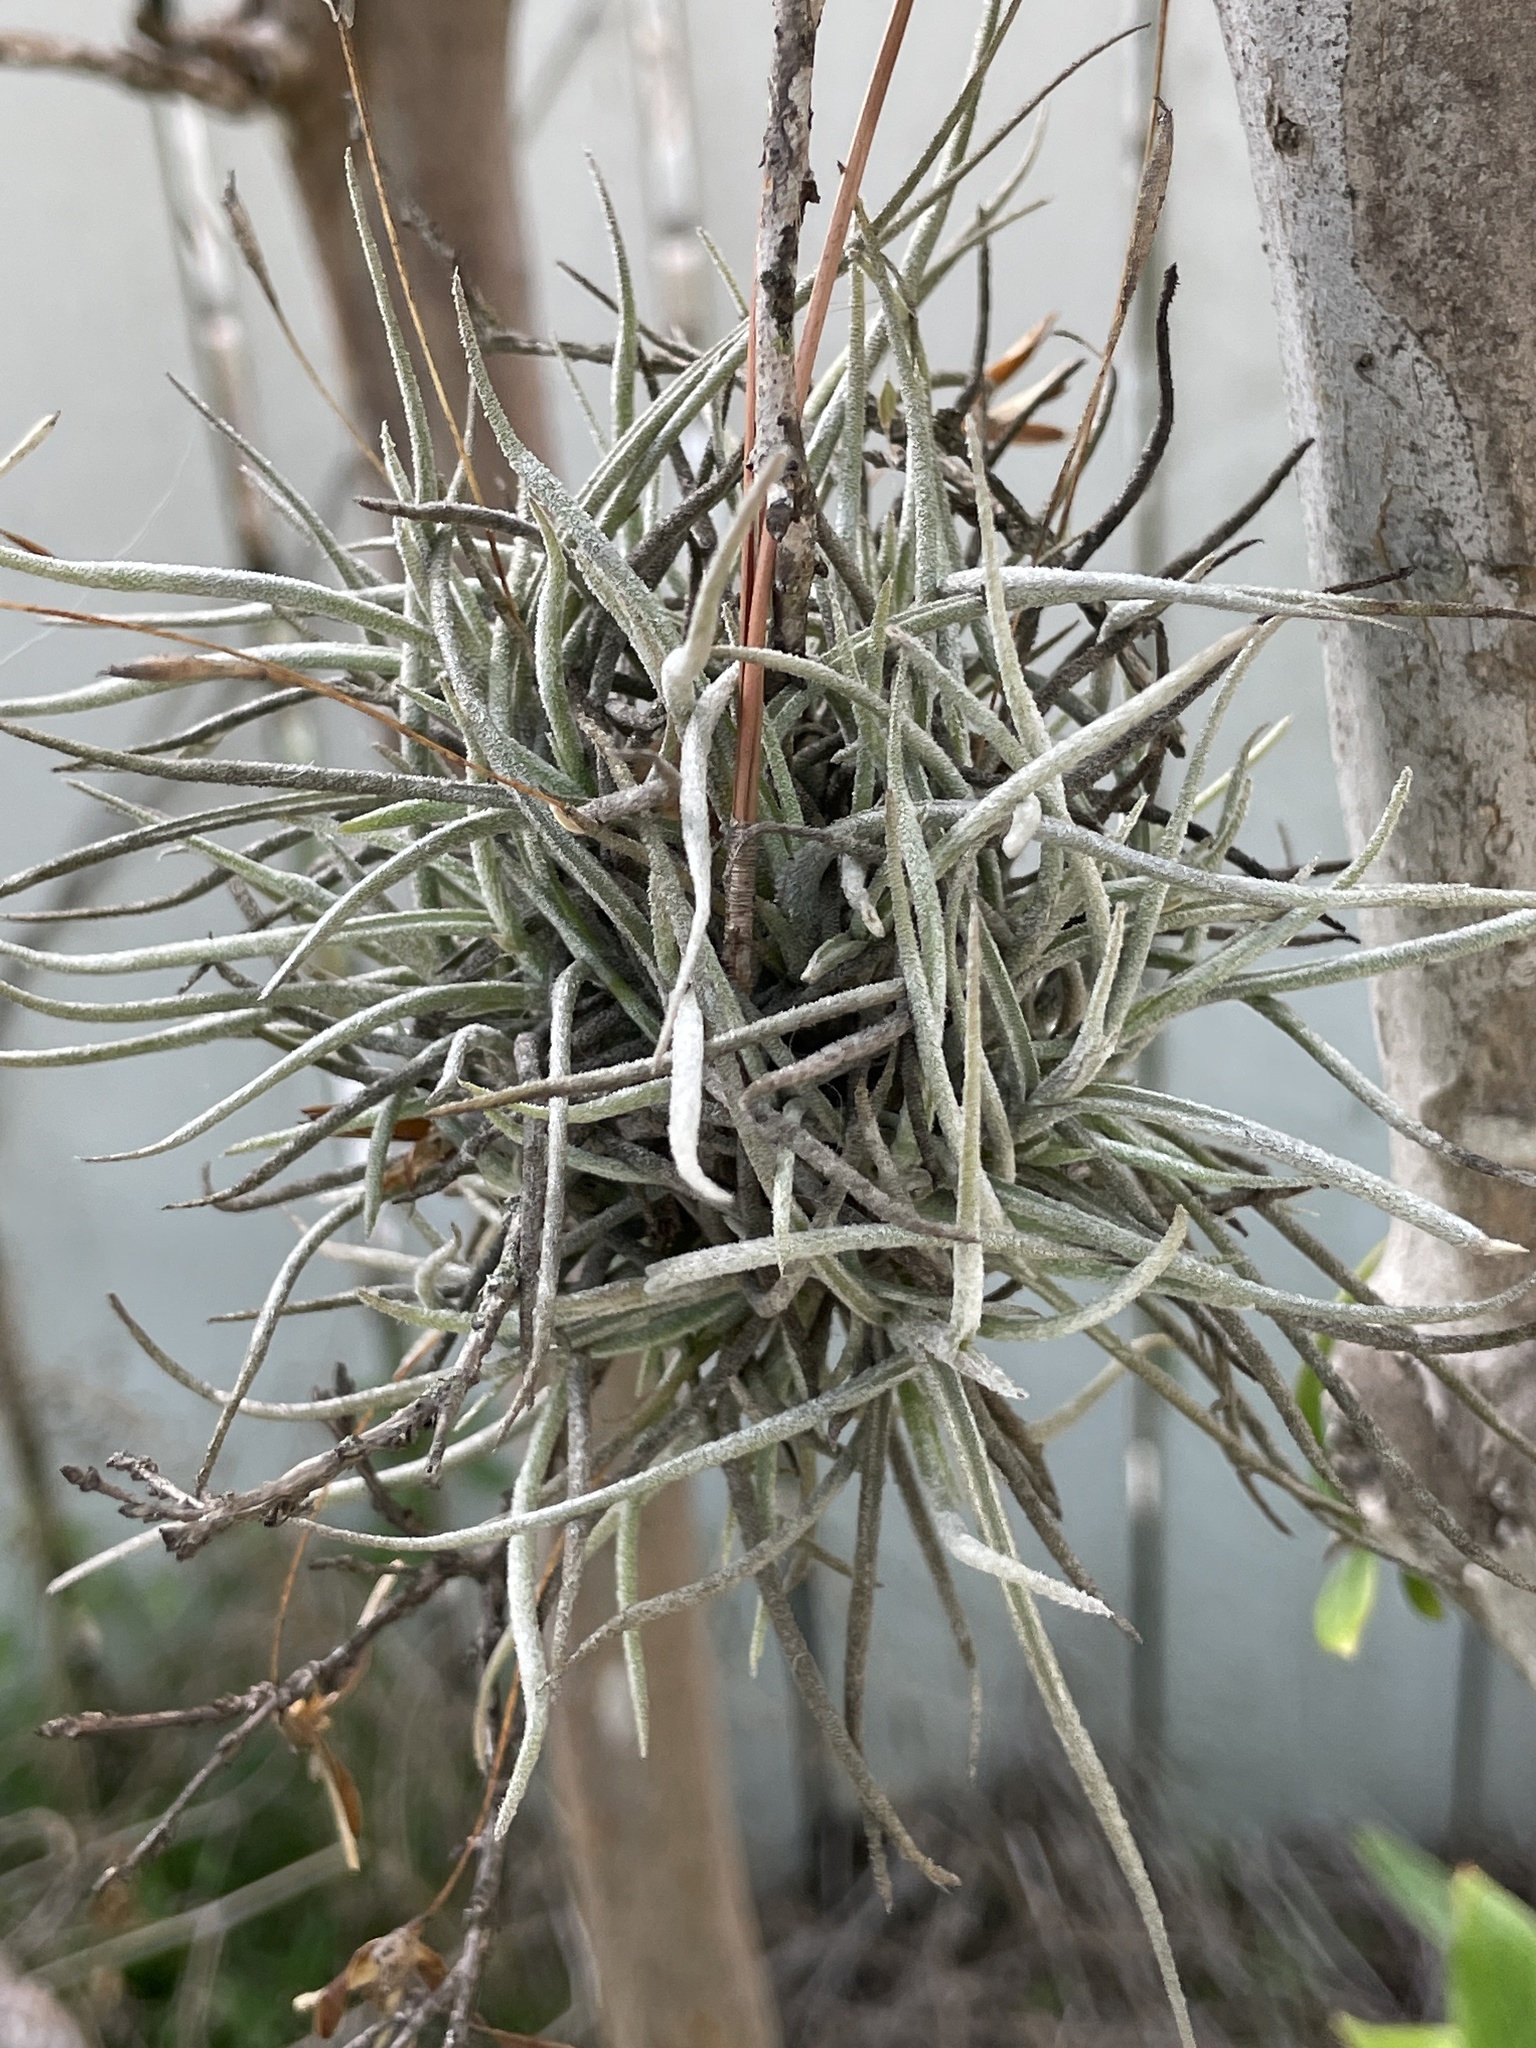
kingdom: Plantae
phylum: Tracheophyta
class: Liliopsida
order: Poales
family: Bromeliaceae
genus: Tillandsia
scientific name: Tillandsia recurvata
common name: Small ballmoss
